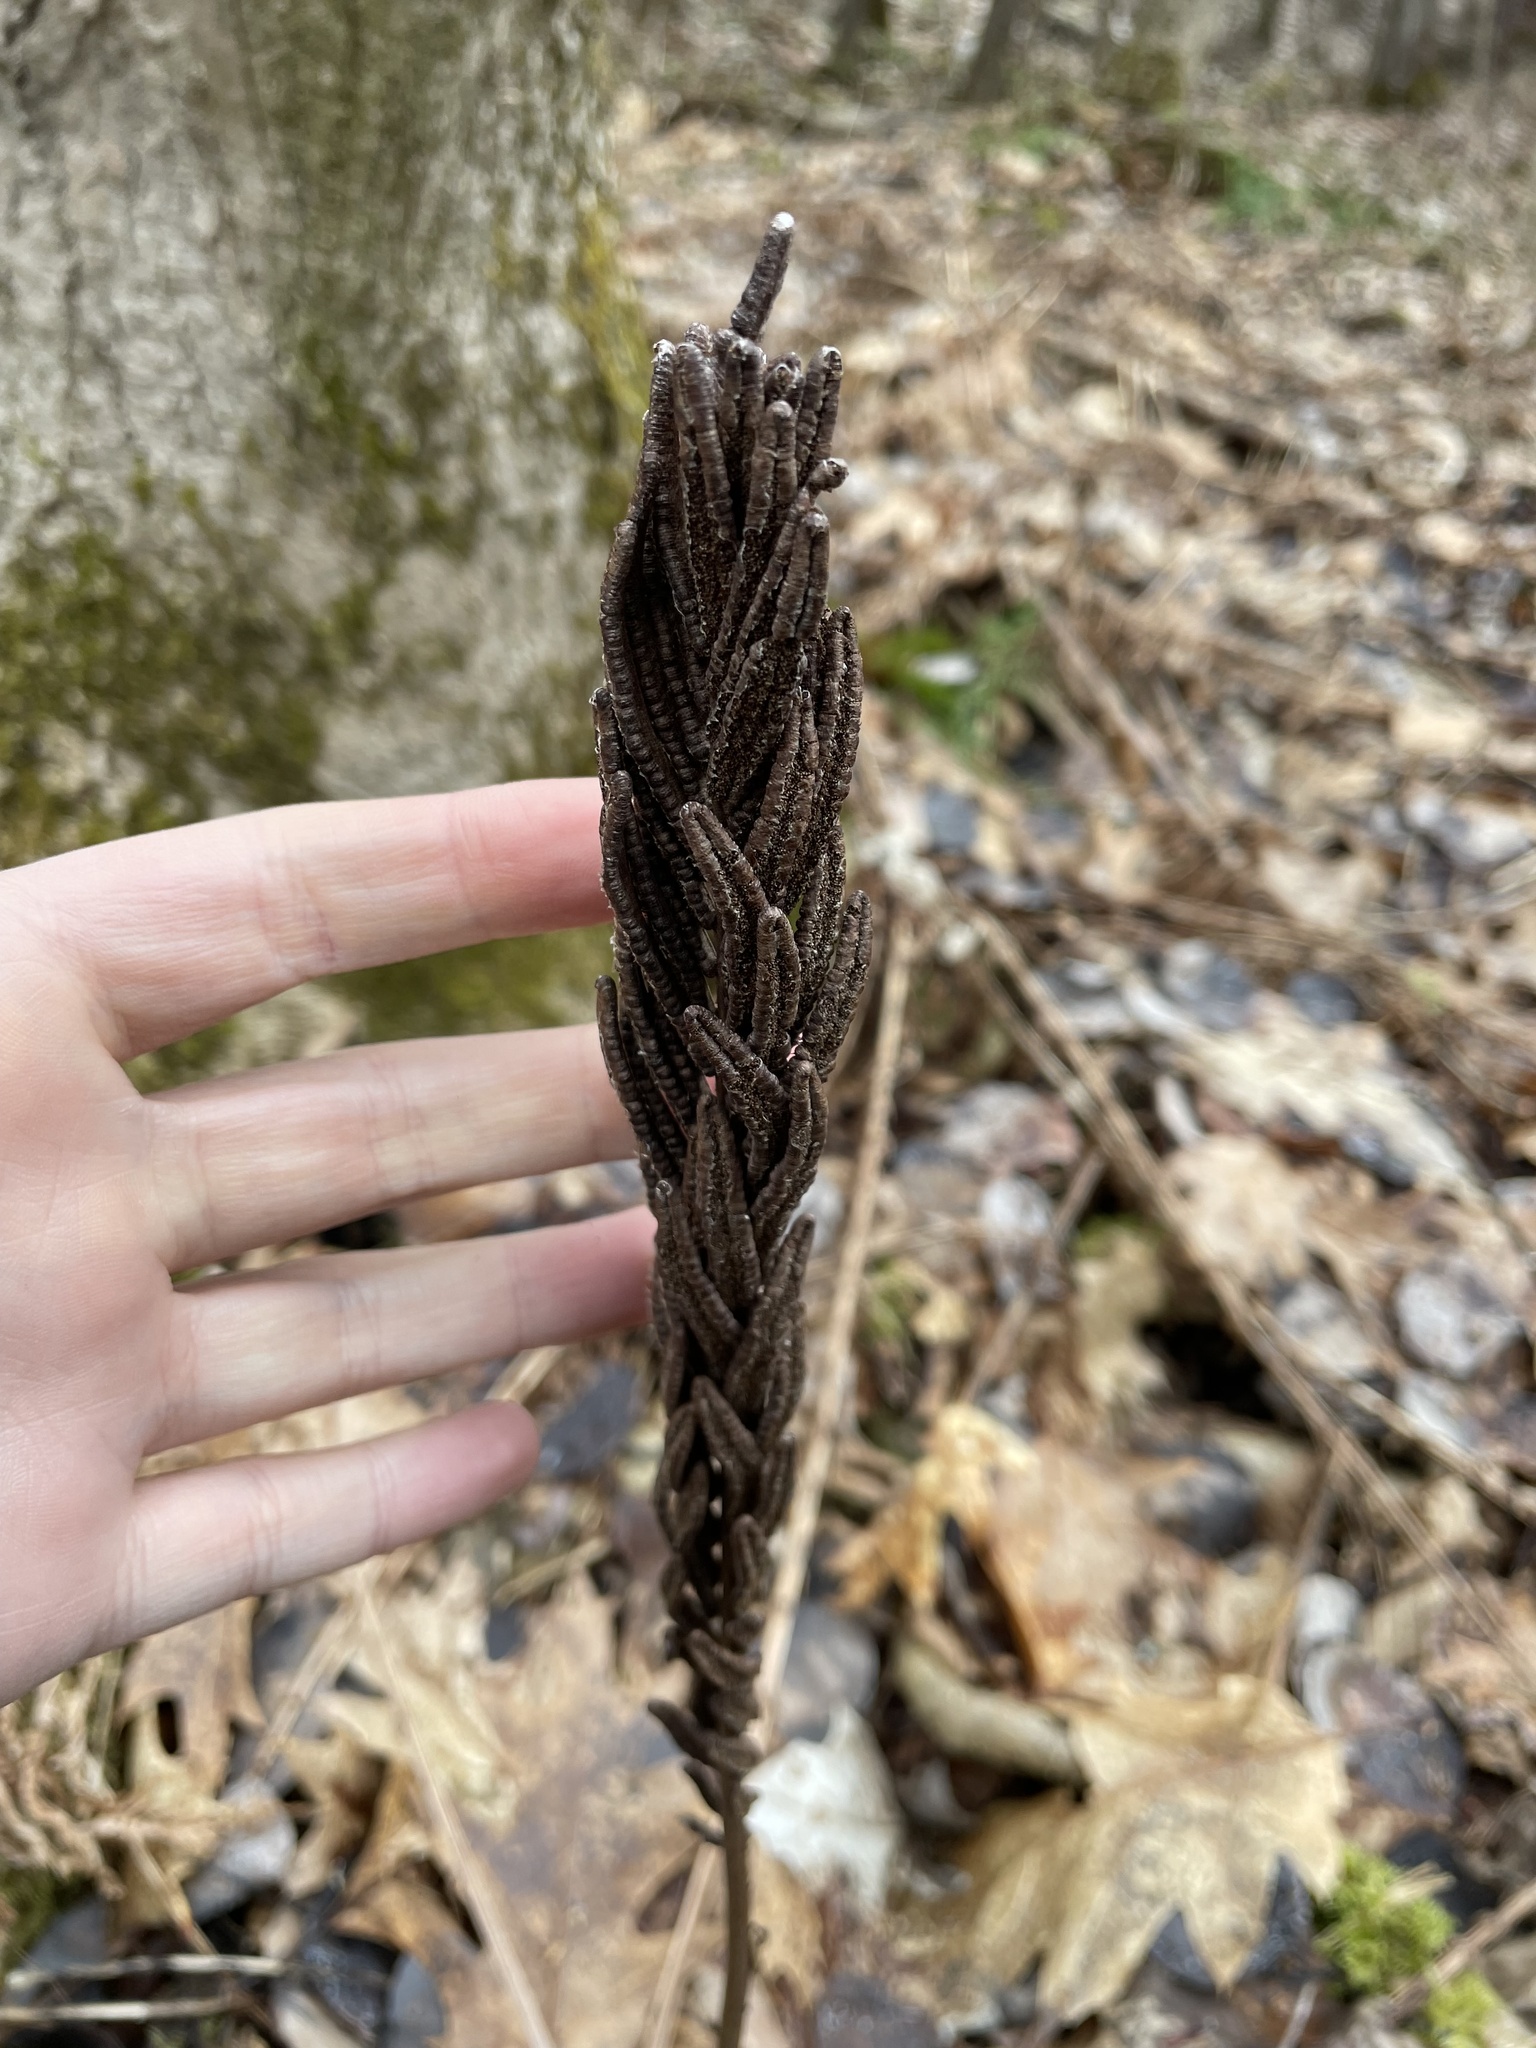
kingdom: Plantae
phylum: Tracheophyta
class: Polypodiopsida
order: Polypodiales
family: Onocleaceae
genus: Matteuccia
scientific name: Matteuccia struthiopteris
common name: Ostrich fern
